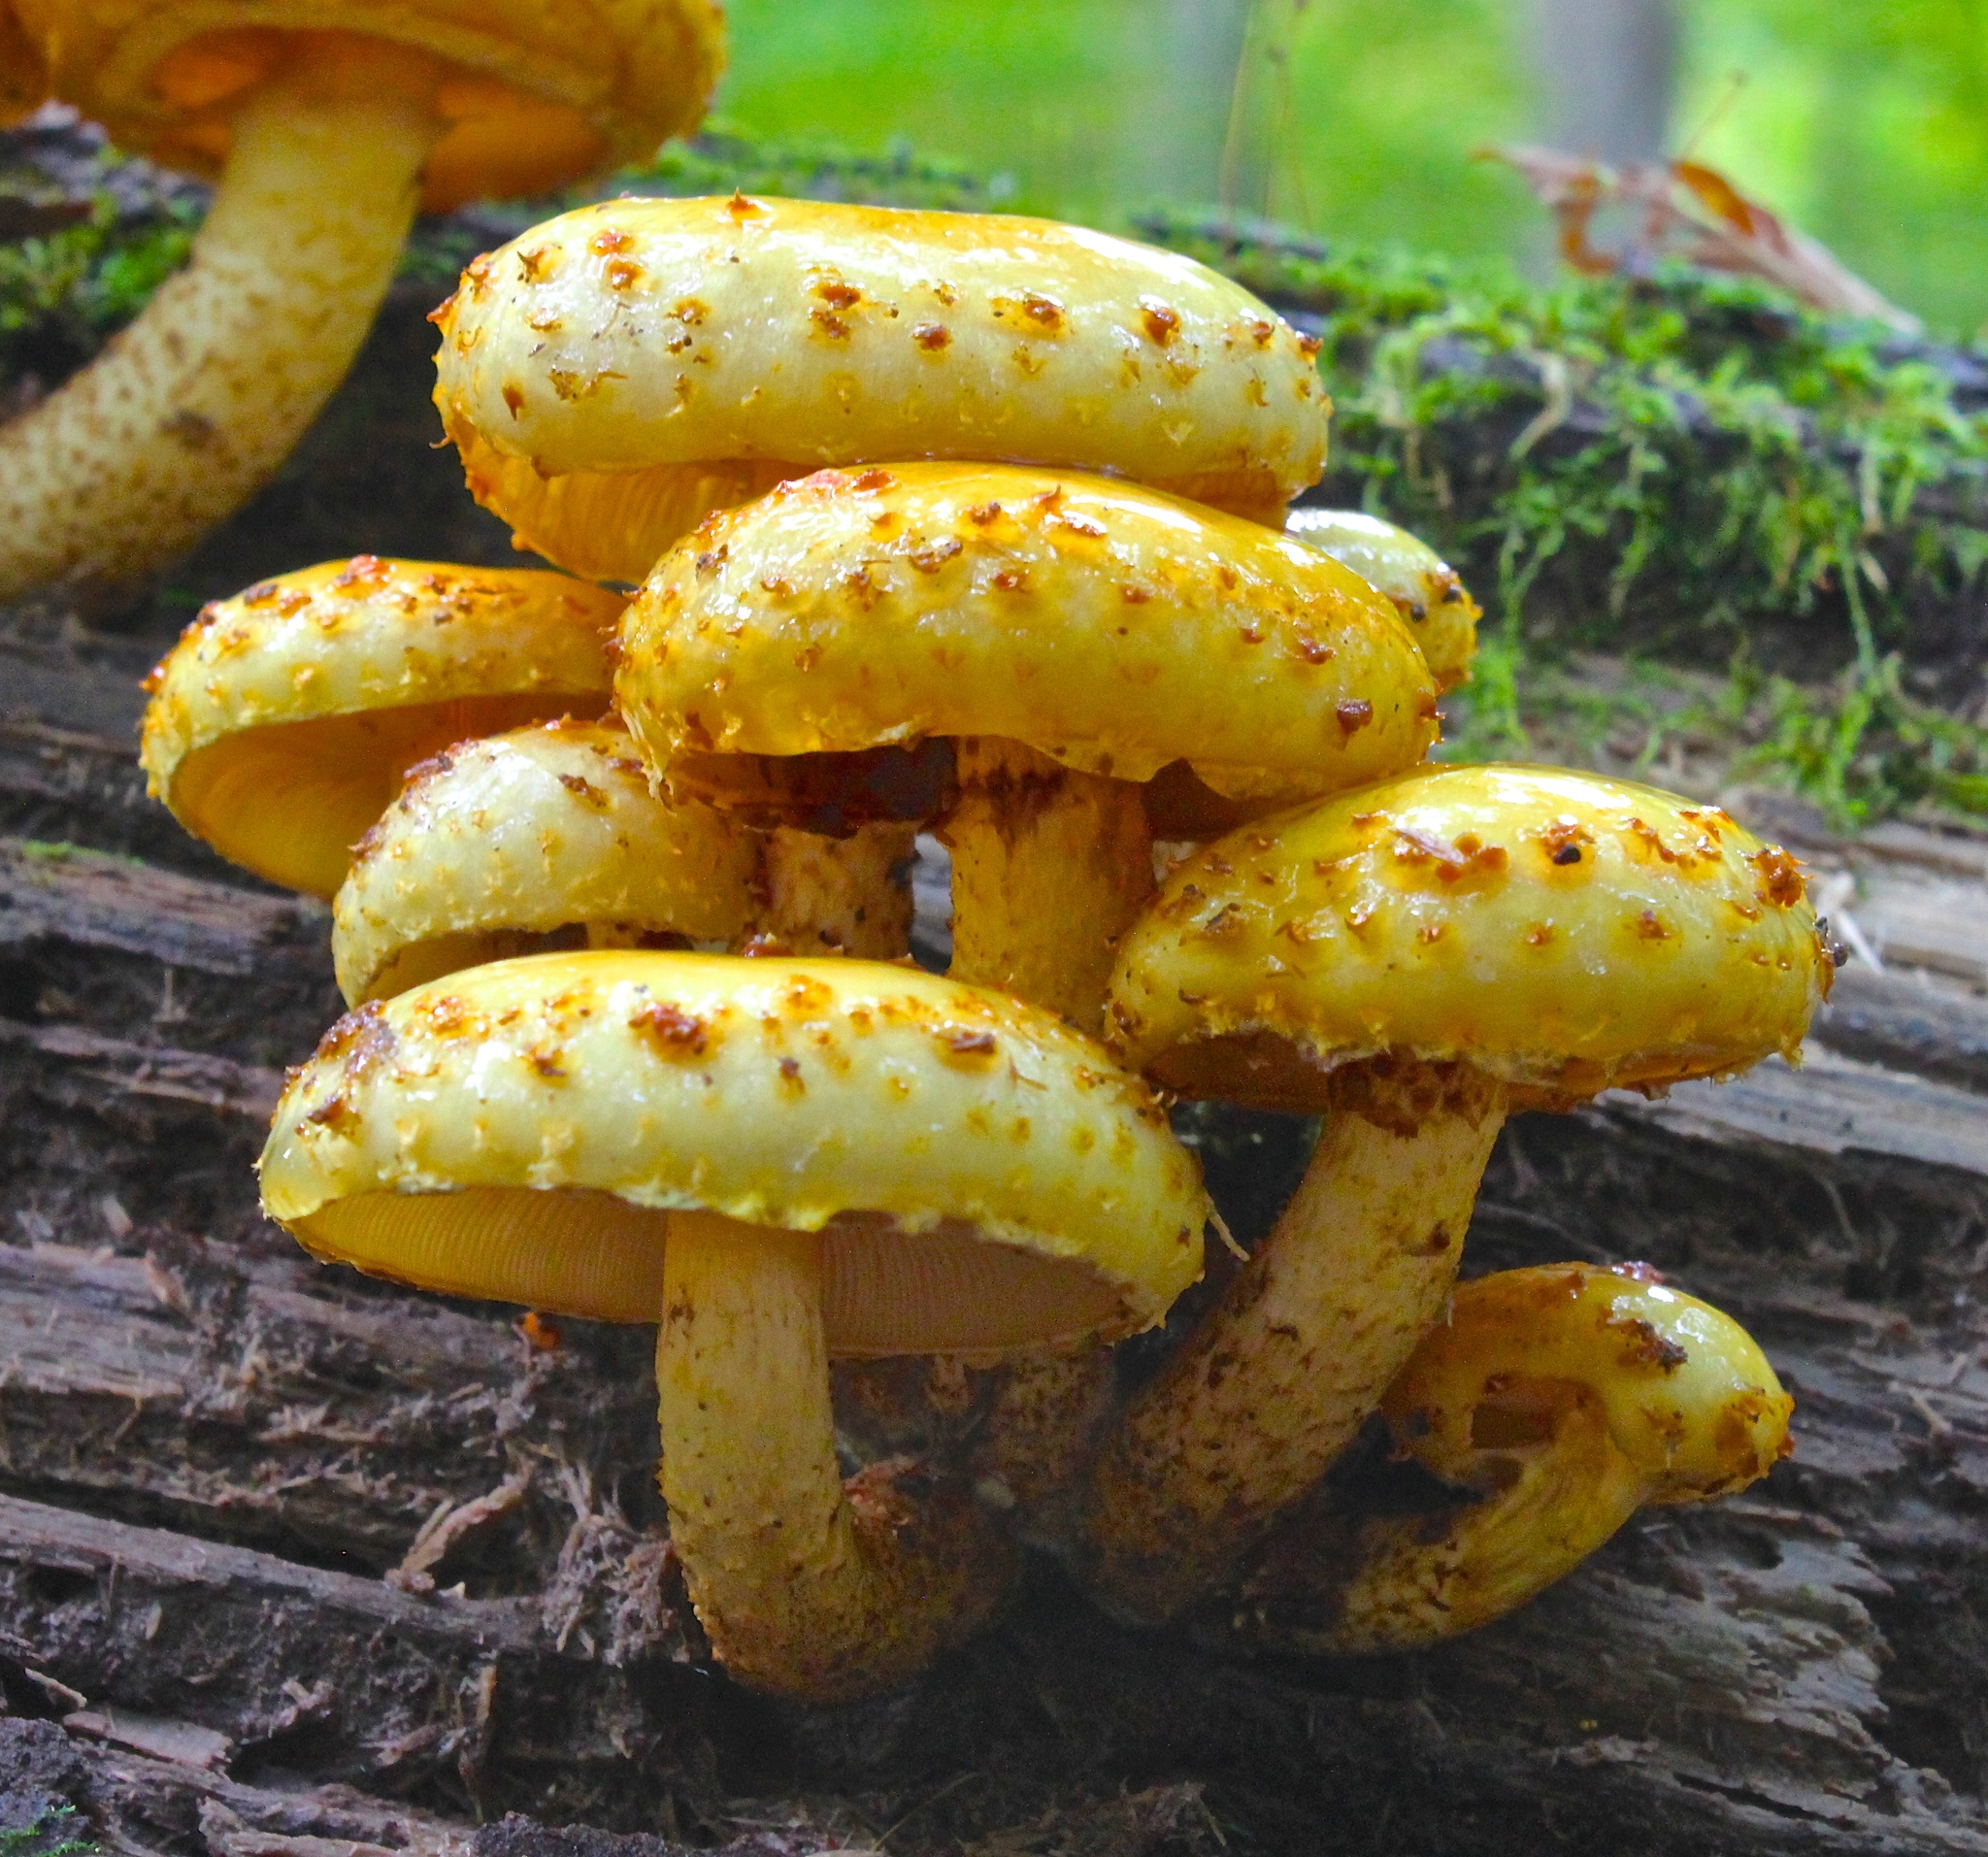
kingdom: Fungi
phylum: Basidiomycota
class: Agaricomycetes
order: Agaricales
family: Strophariaceae
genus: Pholiota
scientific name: Pholiota aurivella
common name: Golden scalycap
